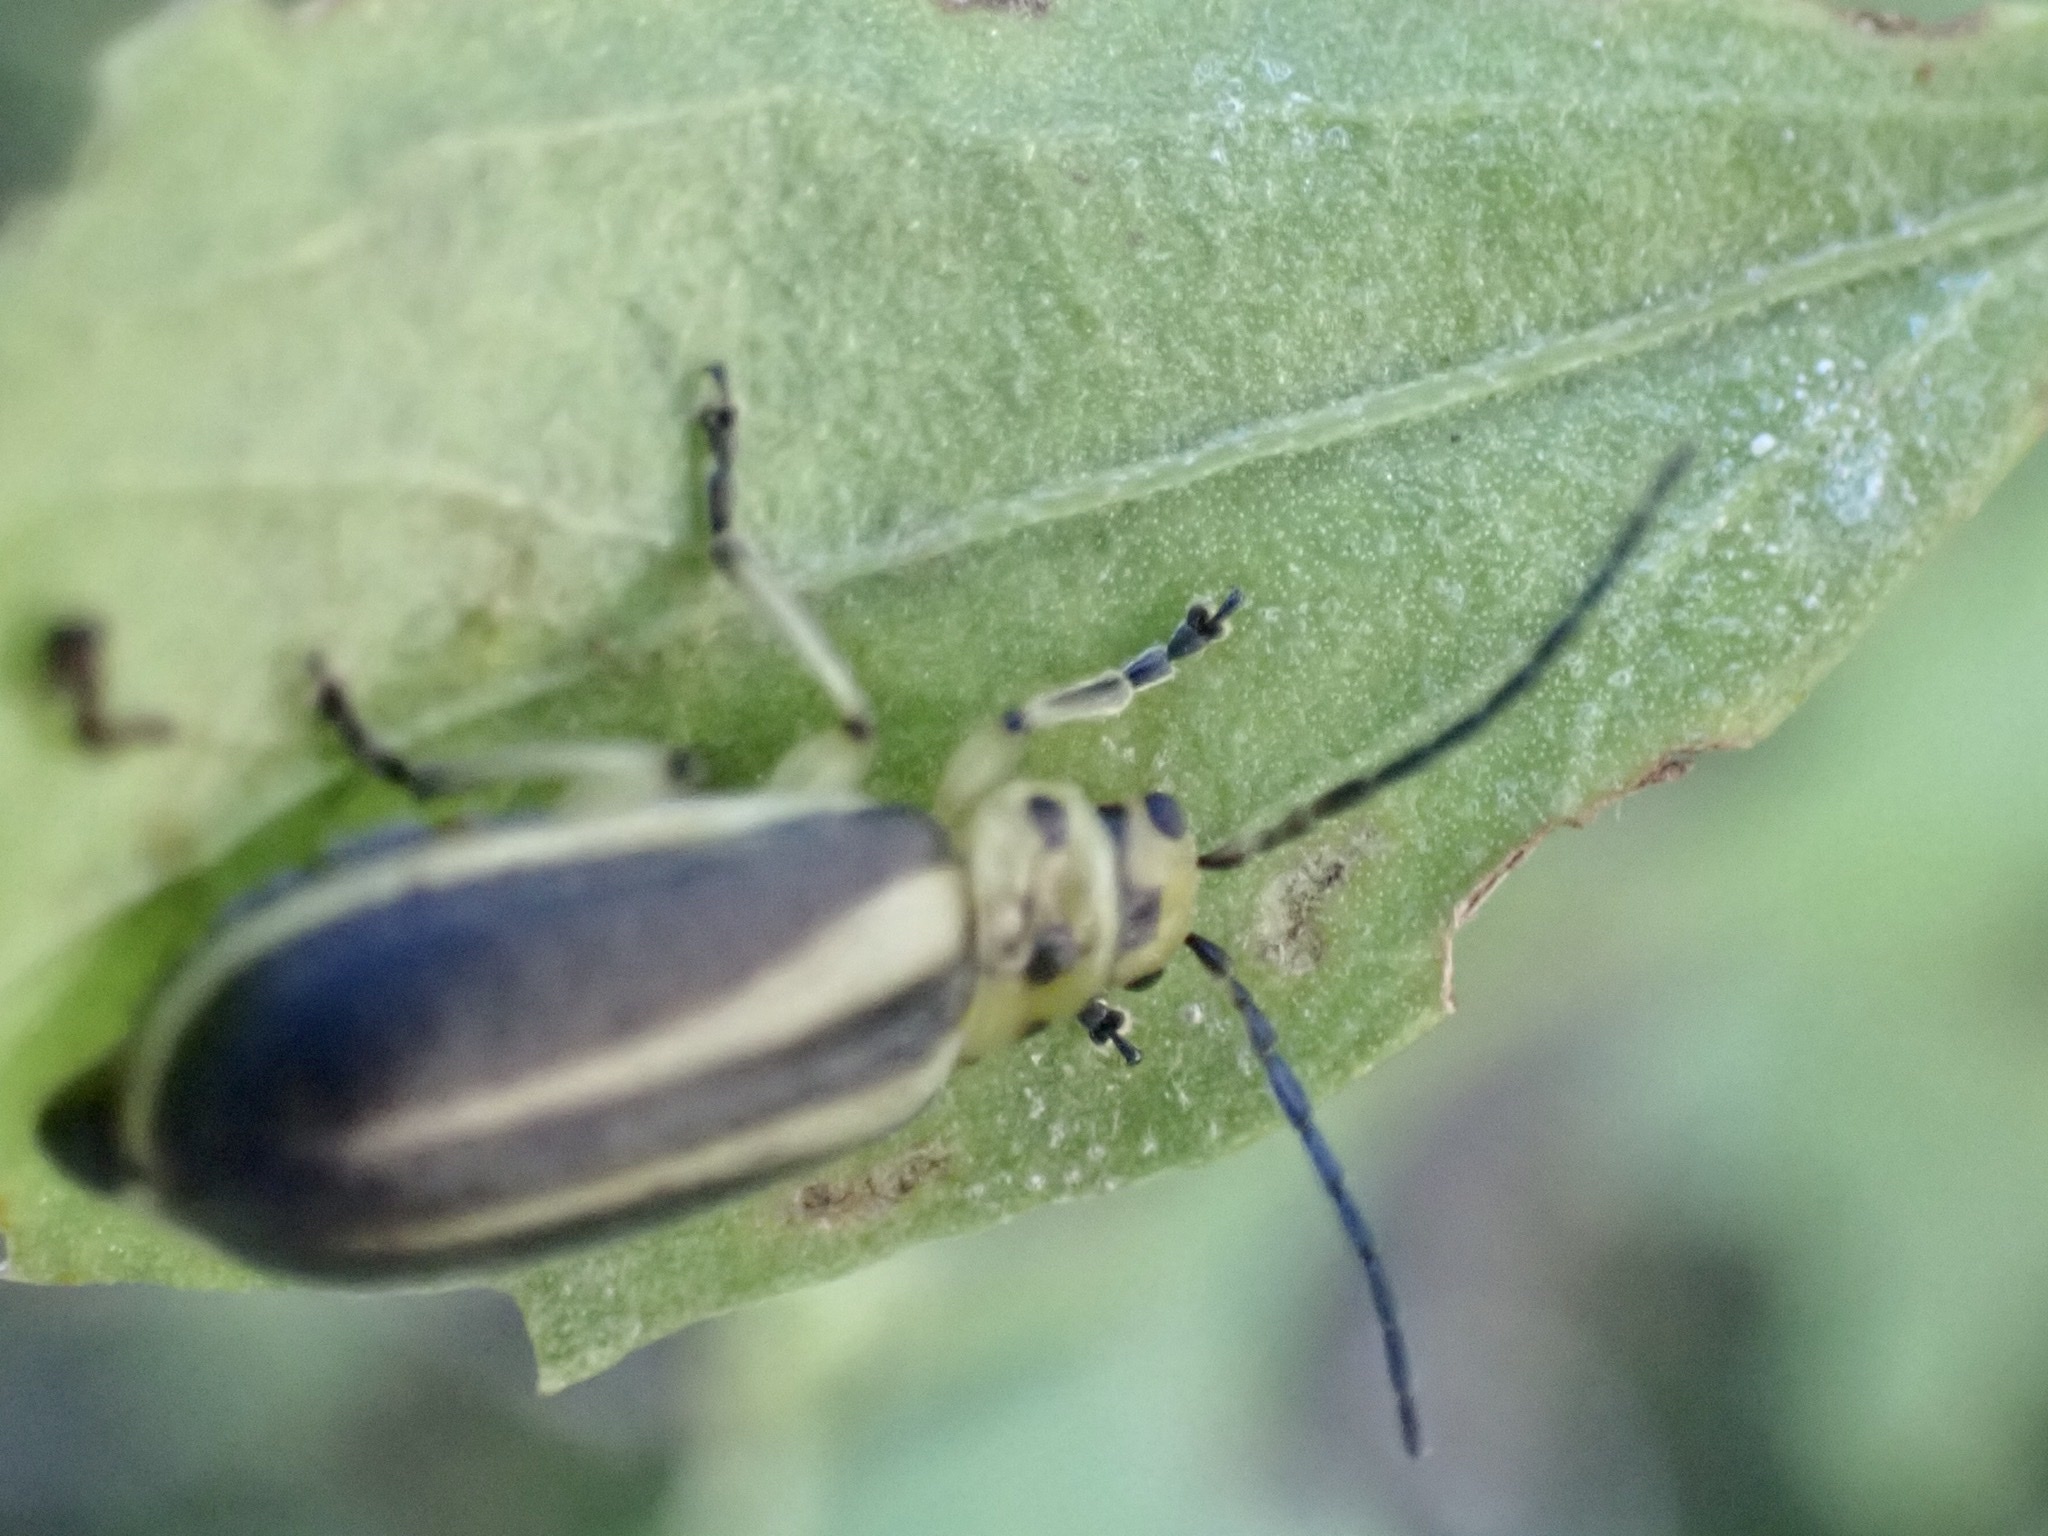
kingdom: Animalia
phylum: Arthropoda
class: Insecta
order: Coleoptera
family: Chrysomelidae
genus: Trirhabda
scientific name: Trirhabda bacharidis
